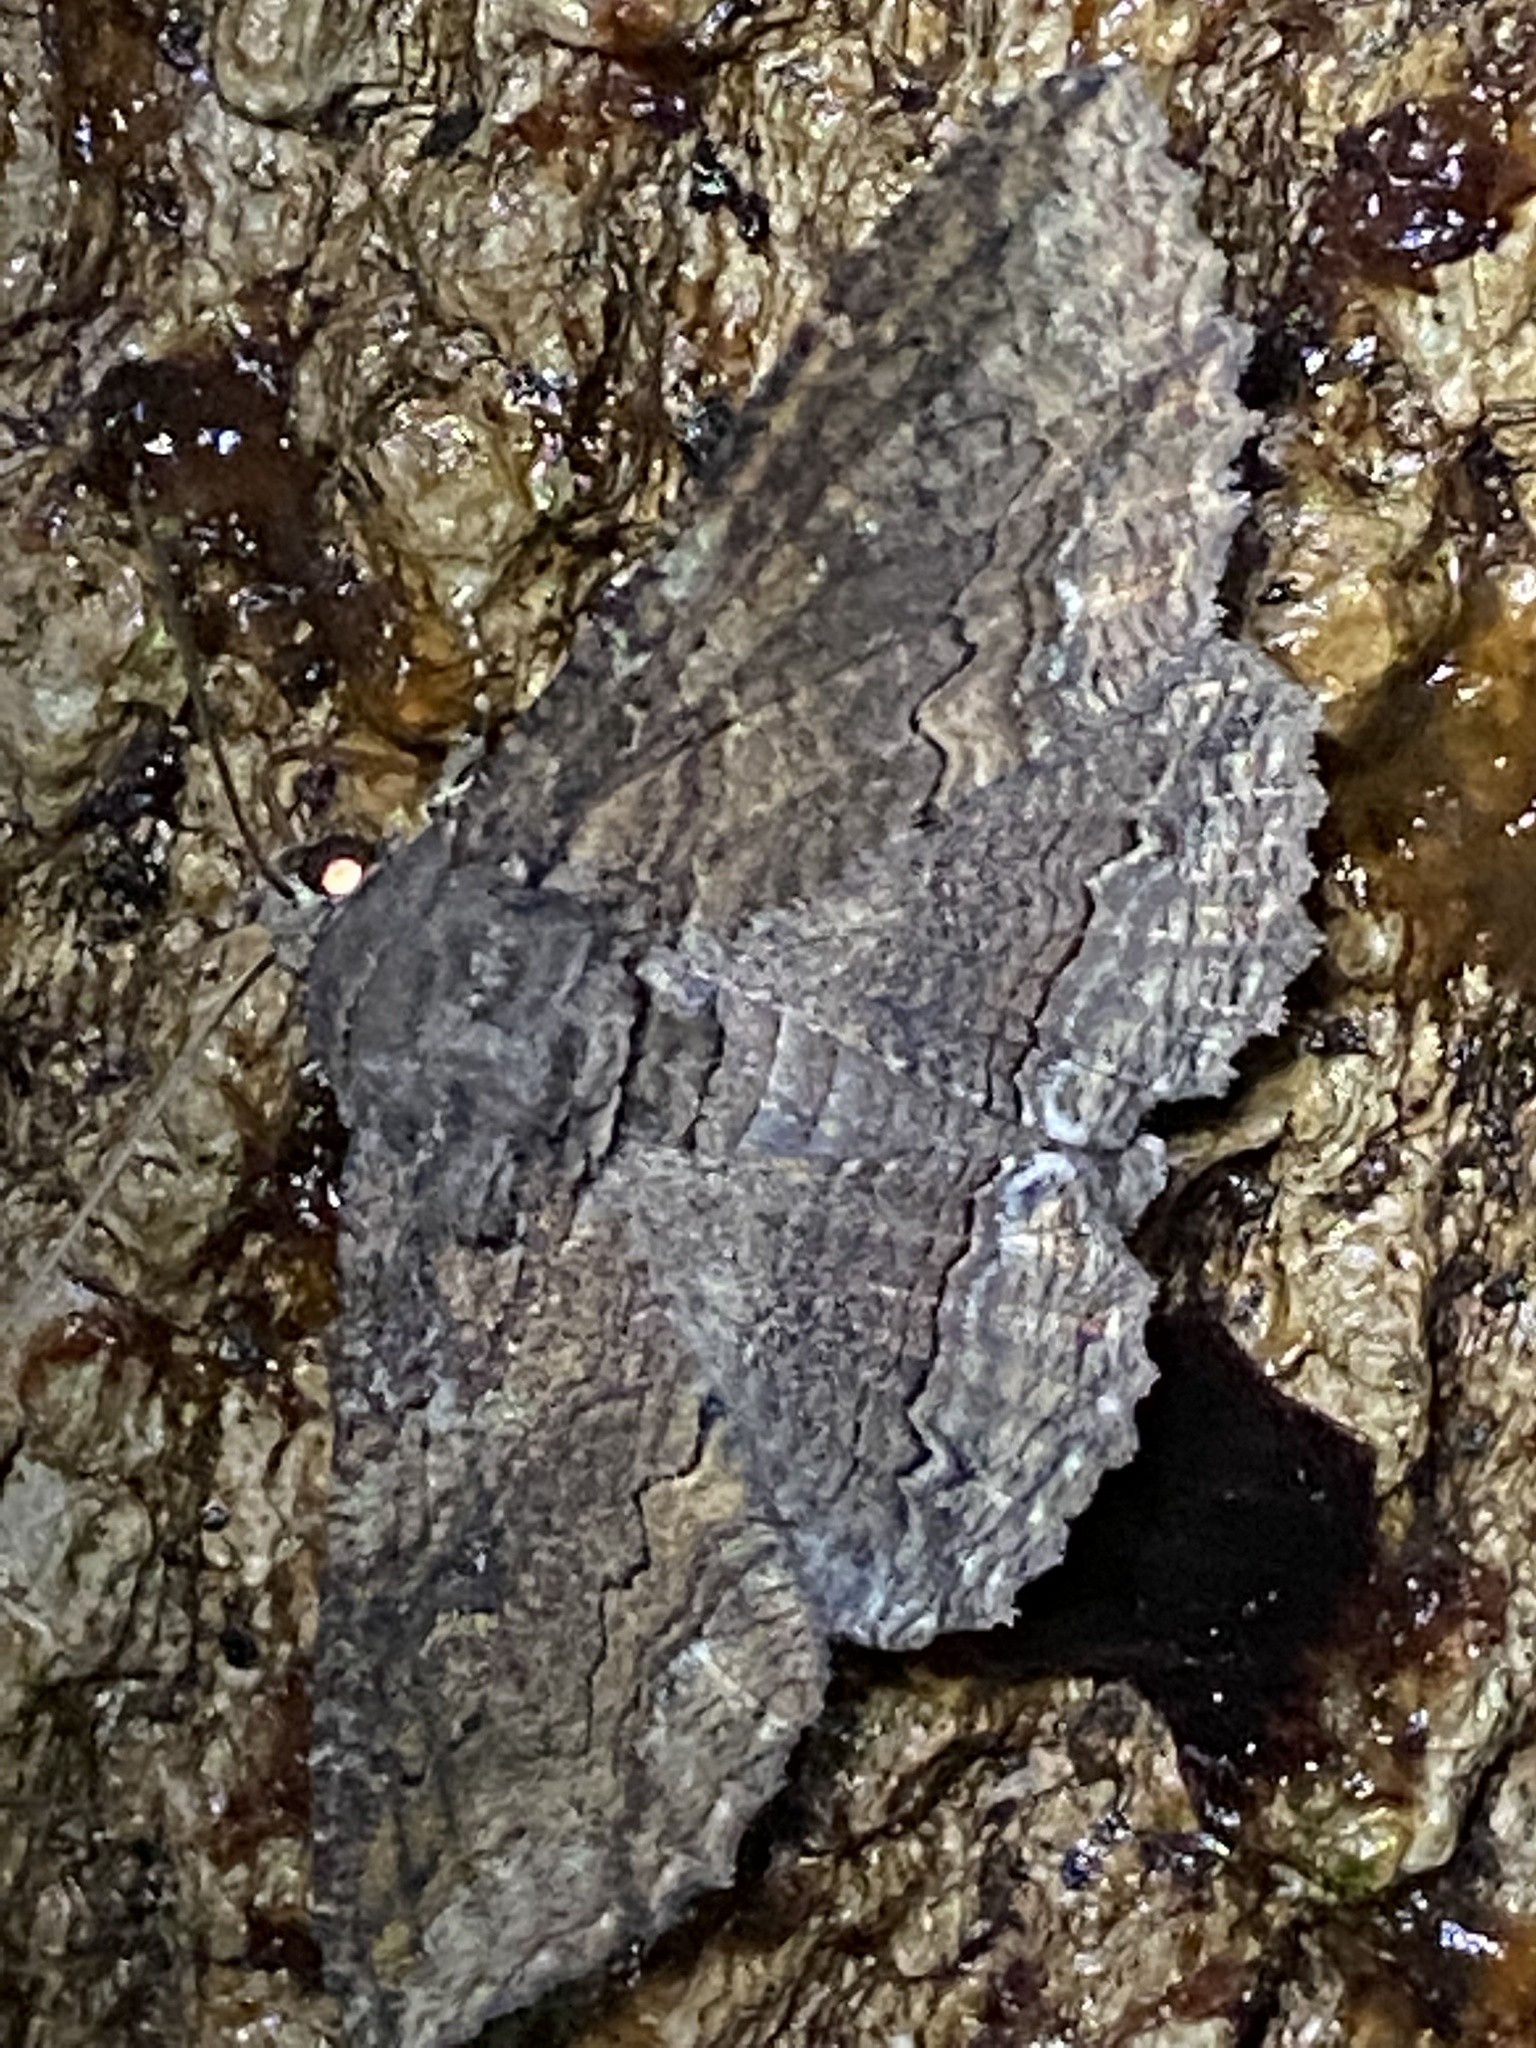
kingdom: Animalia
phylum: Arthropoda
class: Insecta
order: Lepidoptera
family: Erebidae
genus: Zale
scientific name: Zale lunata
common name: Lunate zale moth
